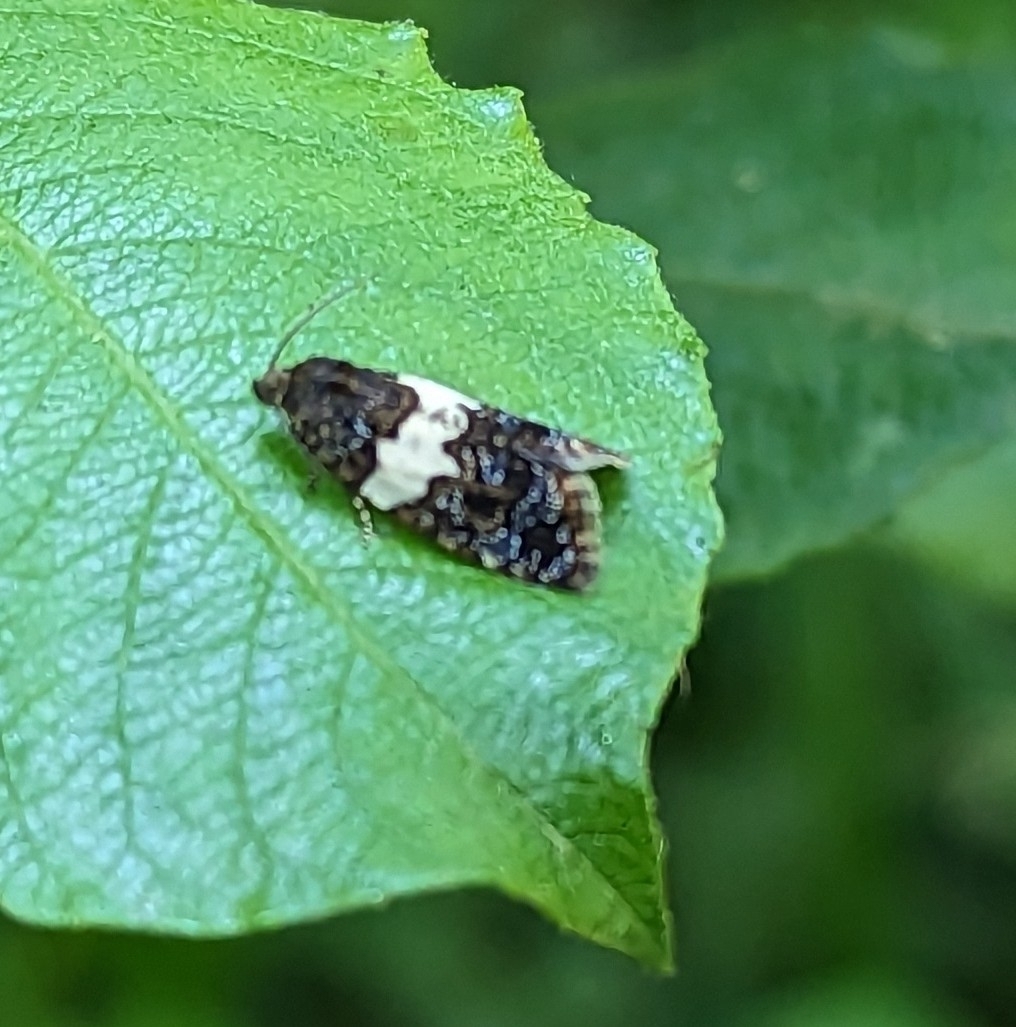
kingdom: Animalia
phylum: Arthropoda
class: Insecta
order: Lepidoptera
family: Tortricidae
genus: Olindia
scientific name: Olindia schumacherana
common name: White-barred tortrix
